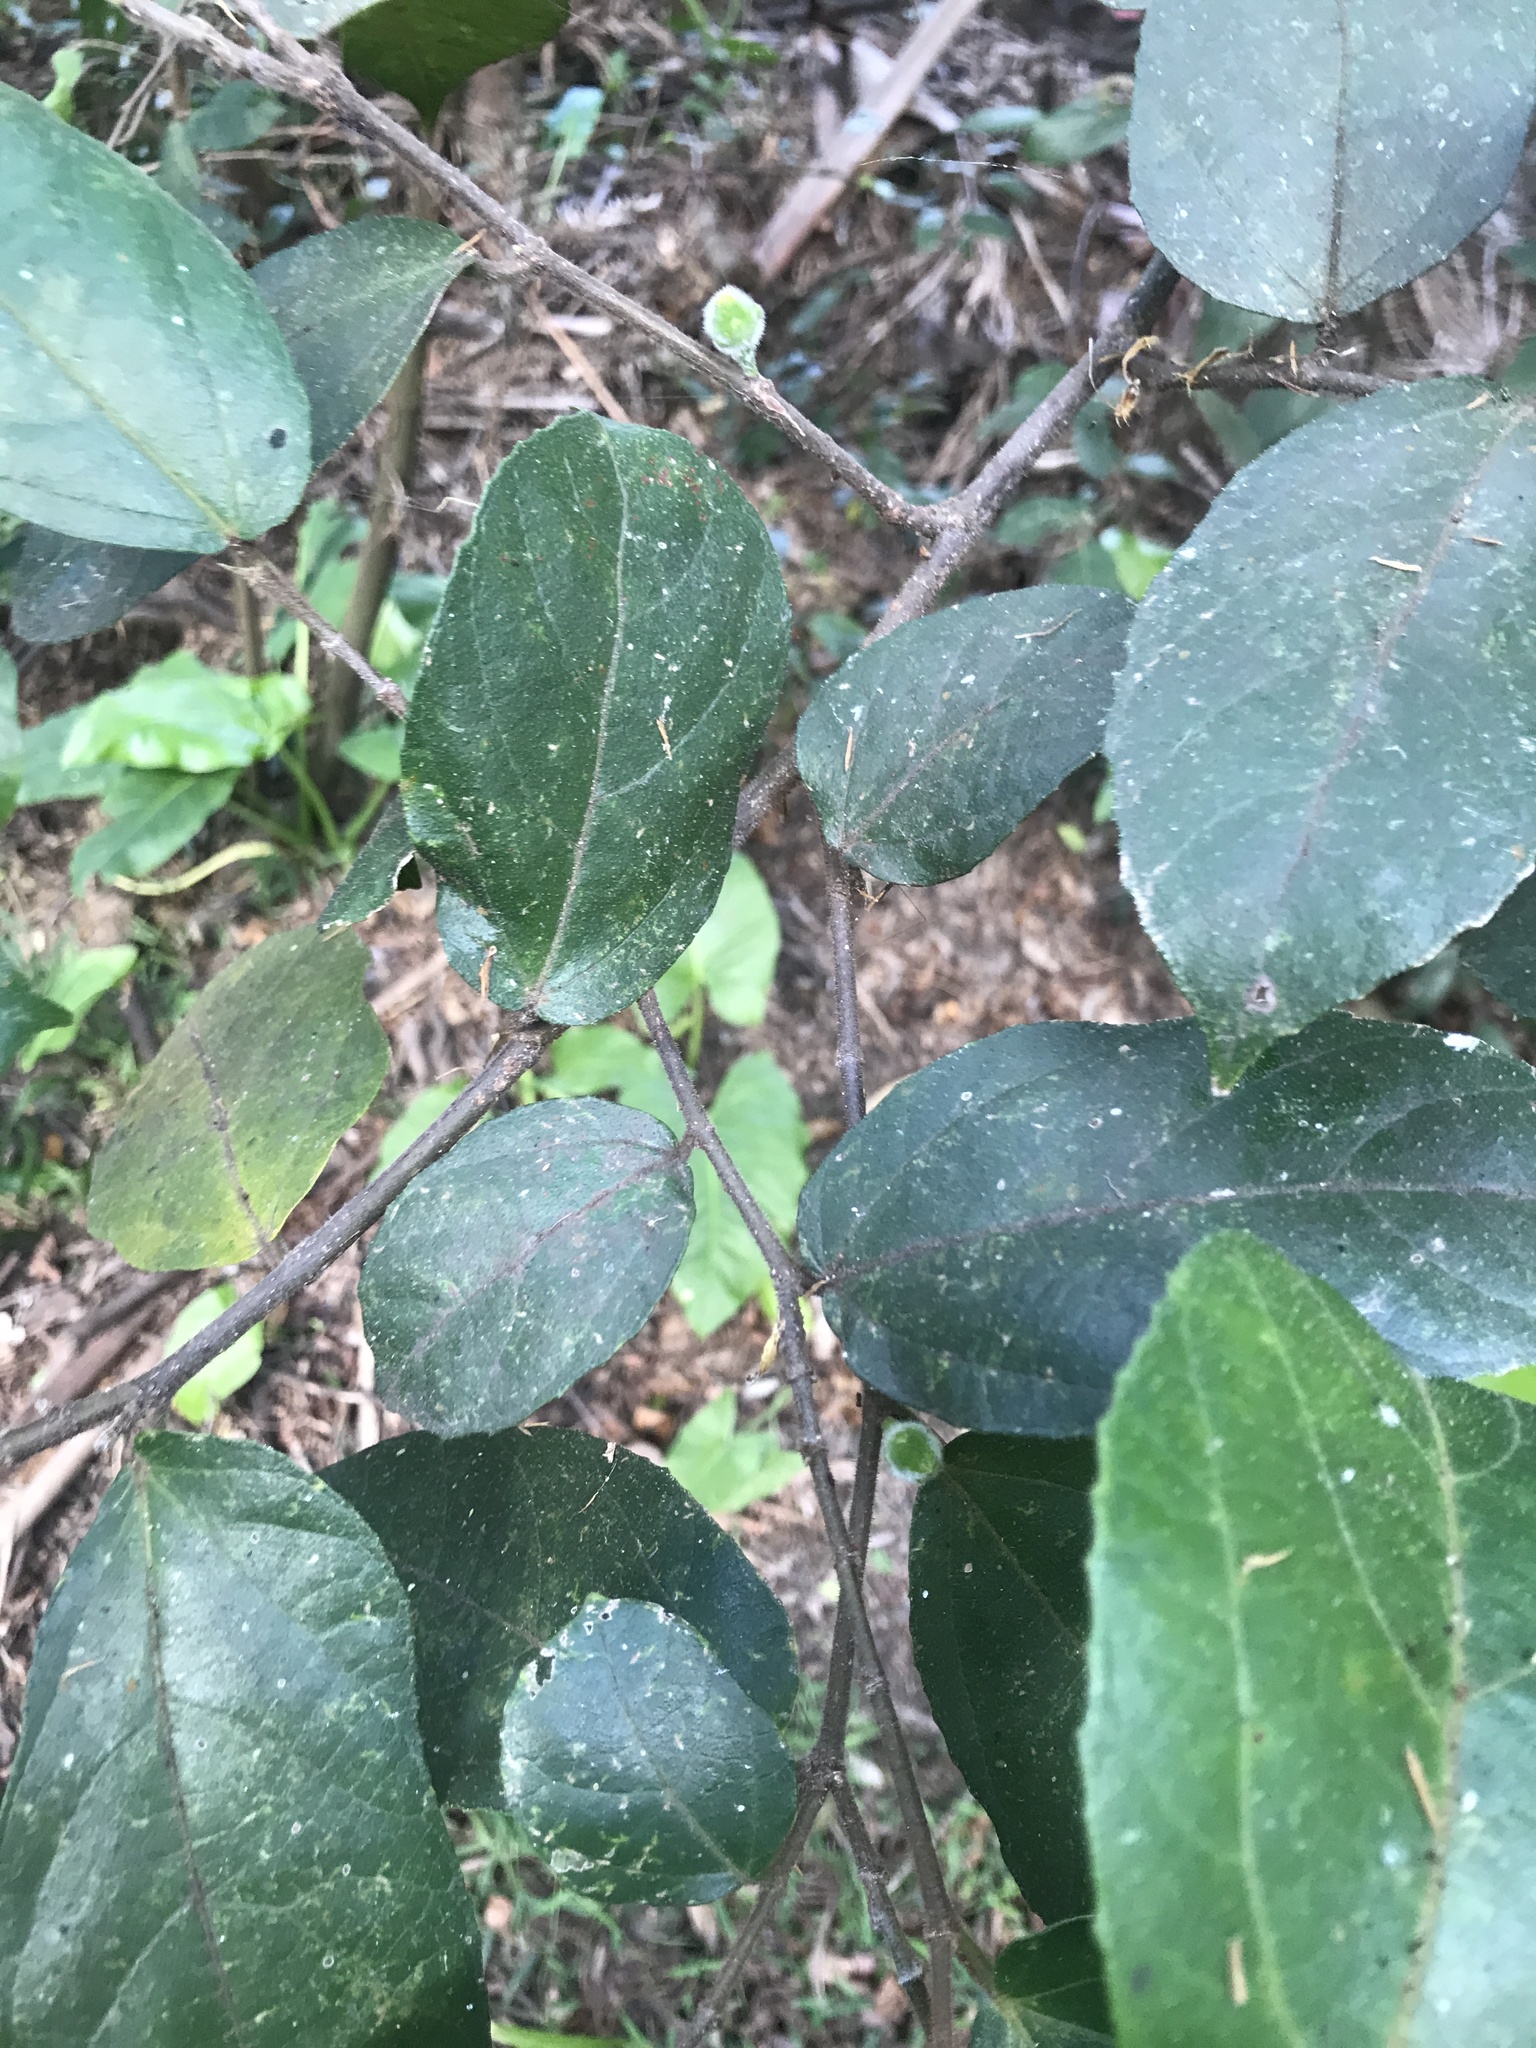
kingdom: Plantae
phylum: Tracheophyta
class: Magnoliopsida
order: Rosales
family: Moraceae
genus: Ficus
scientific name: Ficus coronata
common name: Creek sandpaper fig
